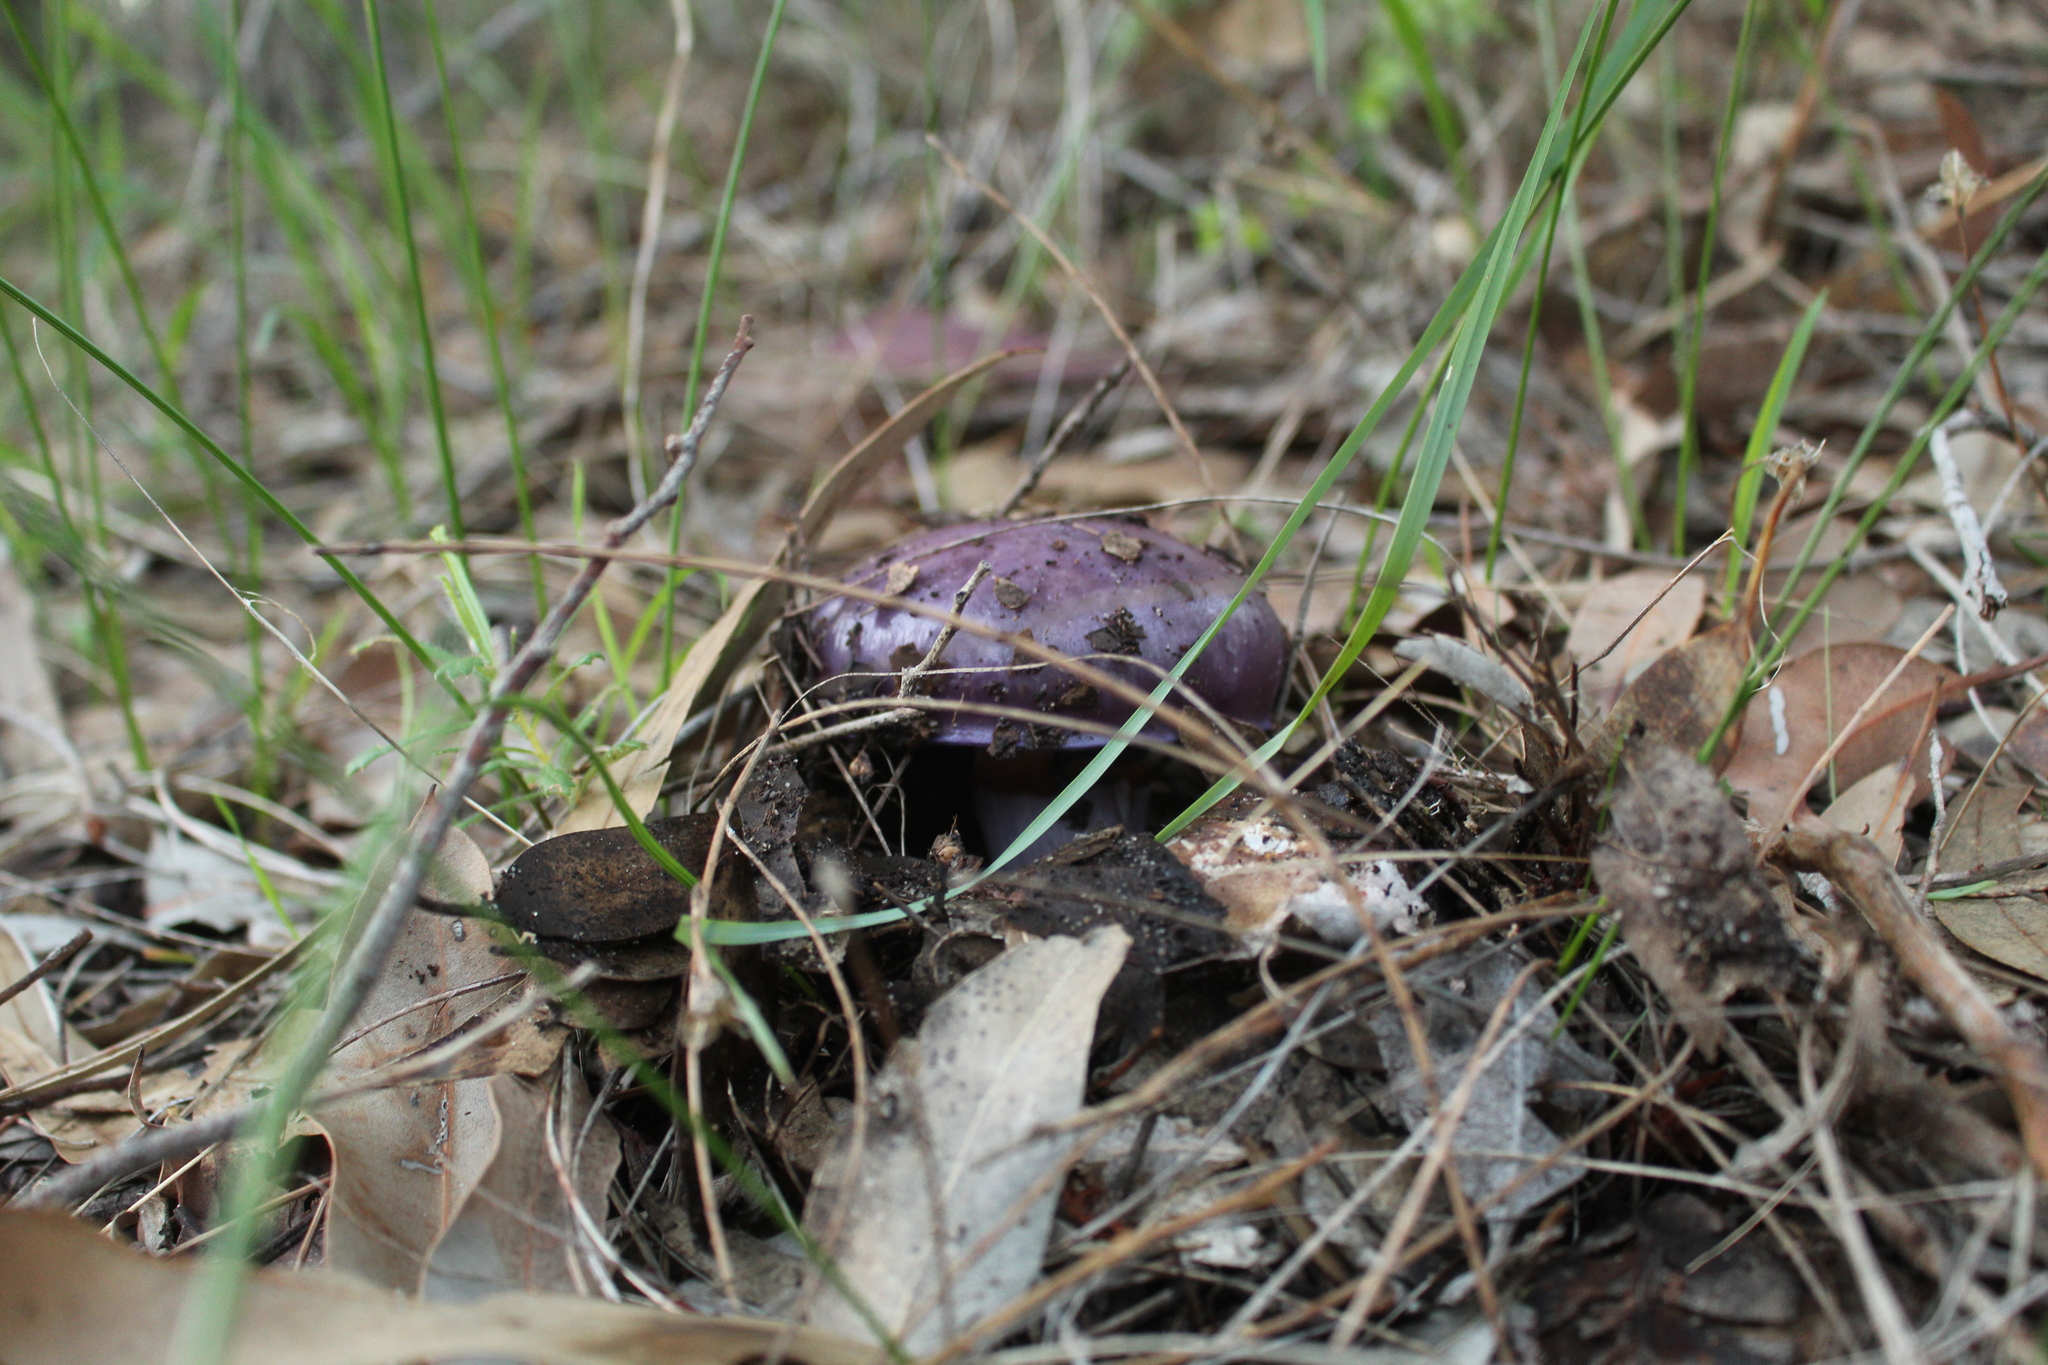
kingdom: Fungi
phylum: Basidiomycota
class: Agaricomycetes
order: Agaricales
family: Cortinariaceae
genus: Cortinarius
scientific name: Cortinarius archeri
